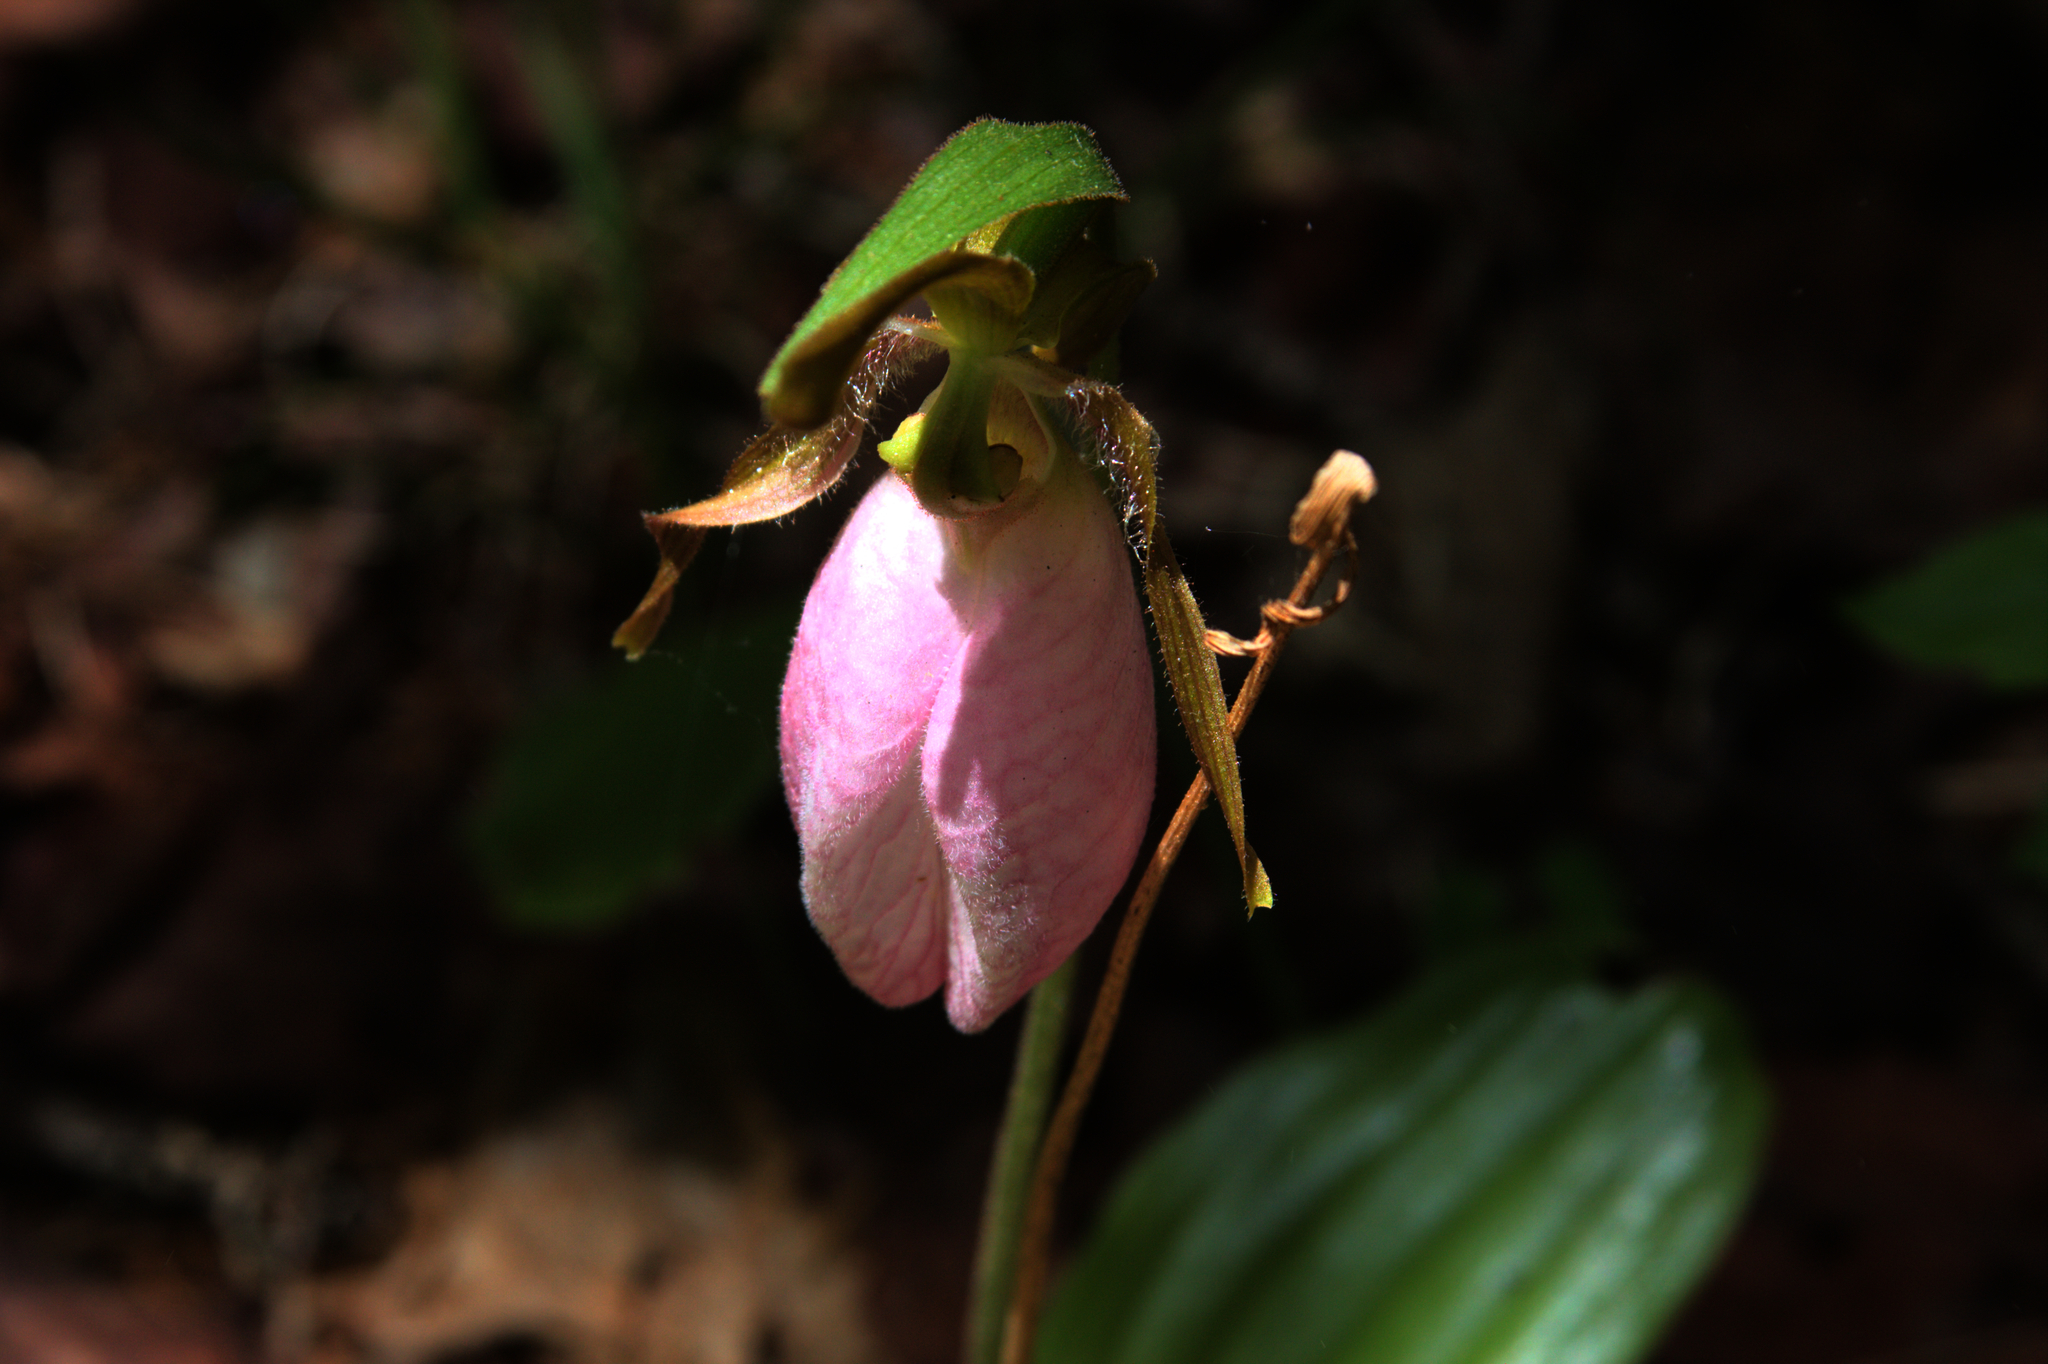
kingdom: Plantae
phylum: Tracheophyta
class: Liliopsida
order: Asparagales
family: Orchidaceae
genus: Cypripedium
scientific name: Cypripedium acaule
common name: Pink lady's-slipper
